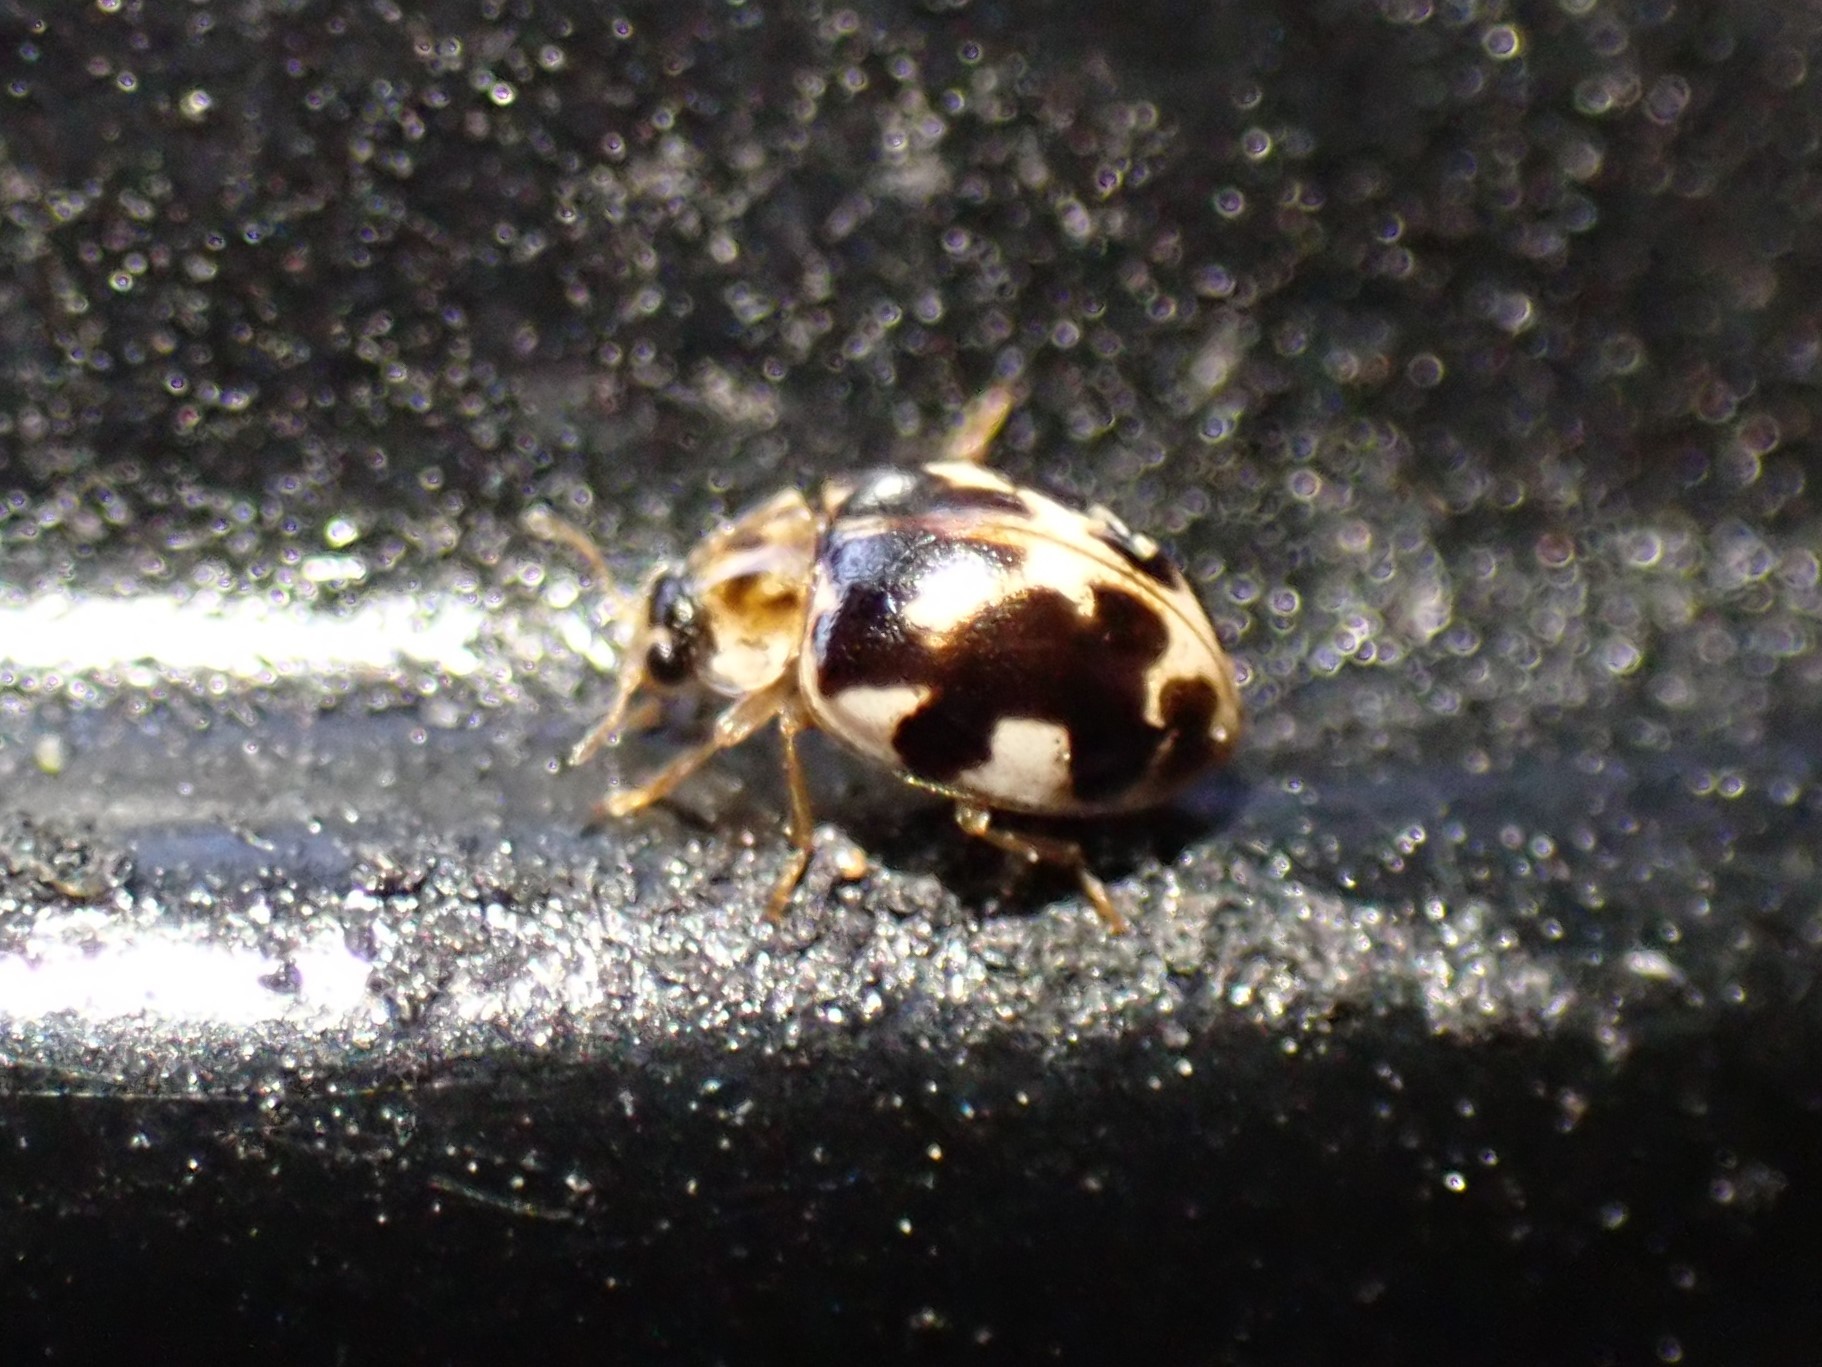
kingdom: Animalia
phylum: Arthropoda
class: Insecta
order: Coleoptera
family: Coccinellidae
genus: Psyllobora
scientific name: Psyllobora vigintimaculata
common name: Ladybird beetle
